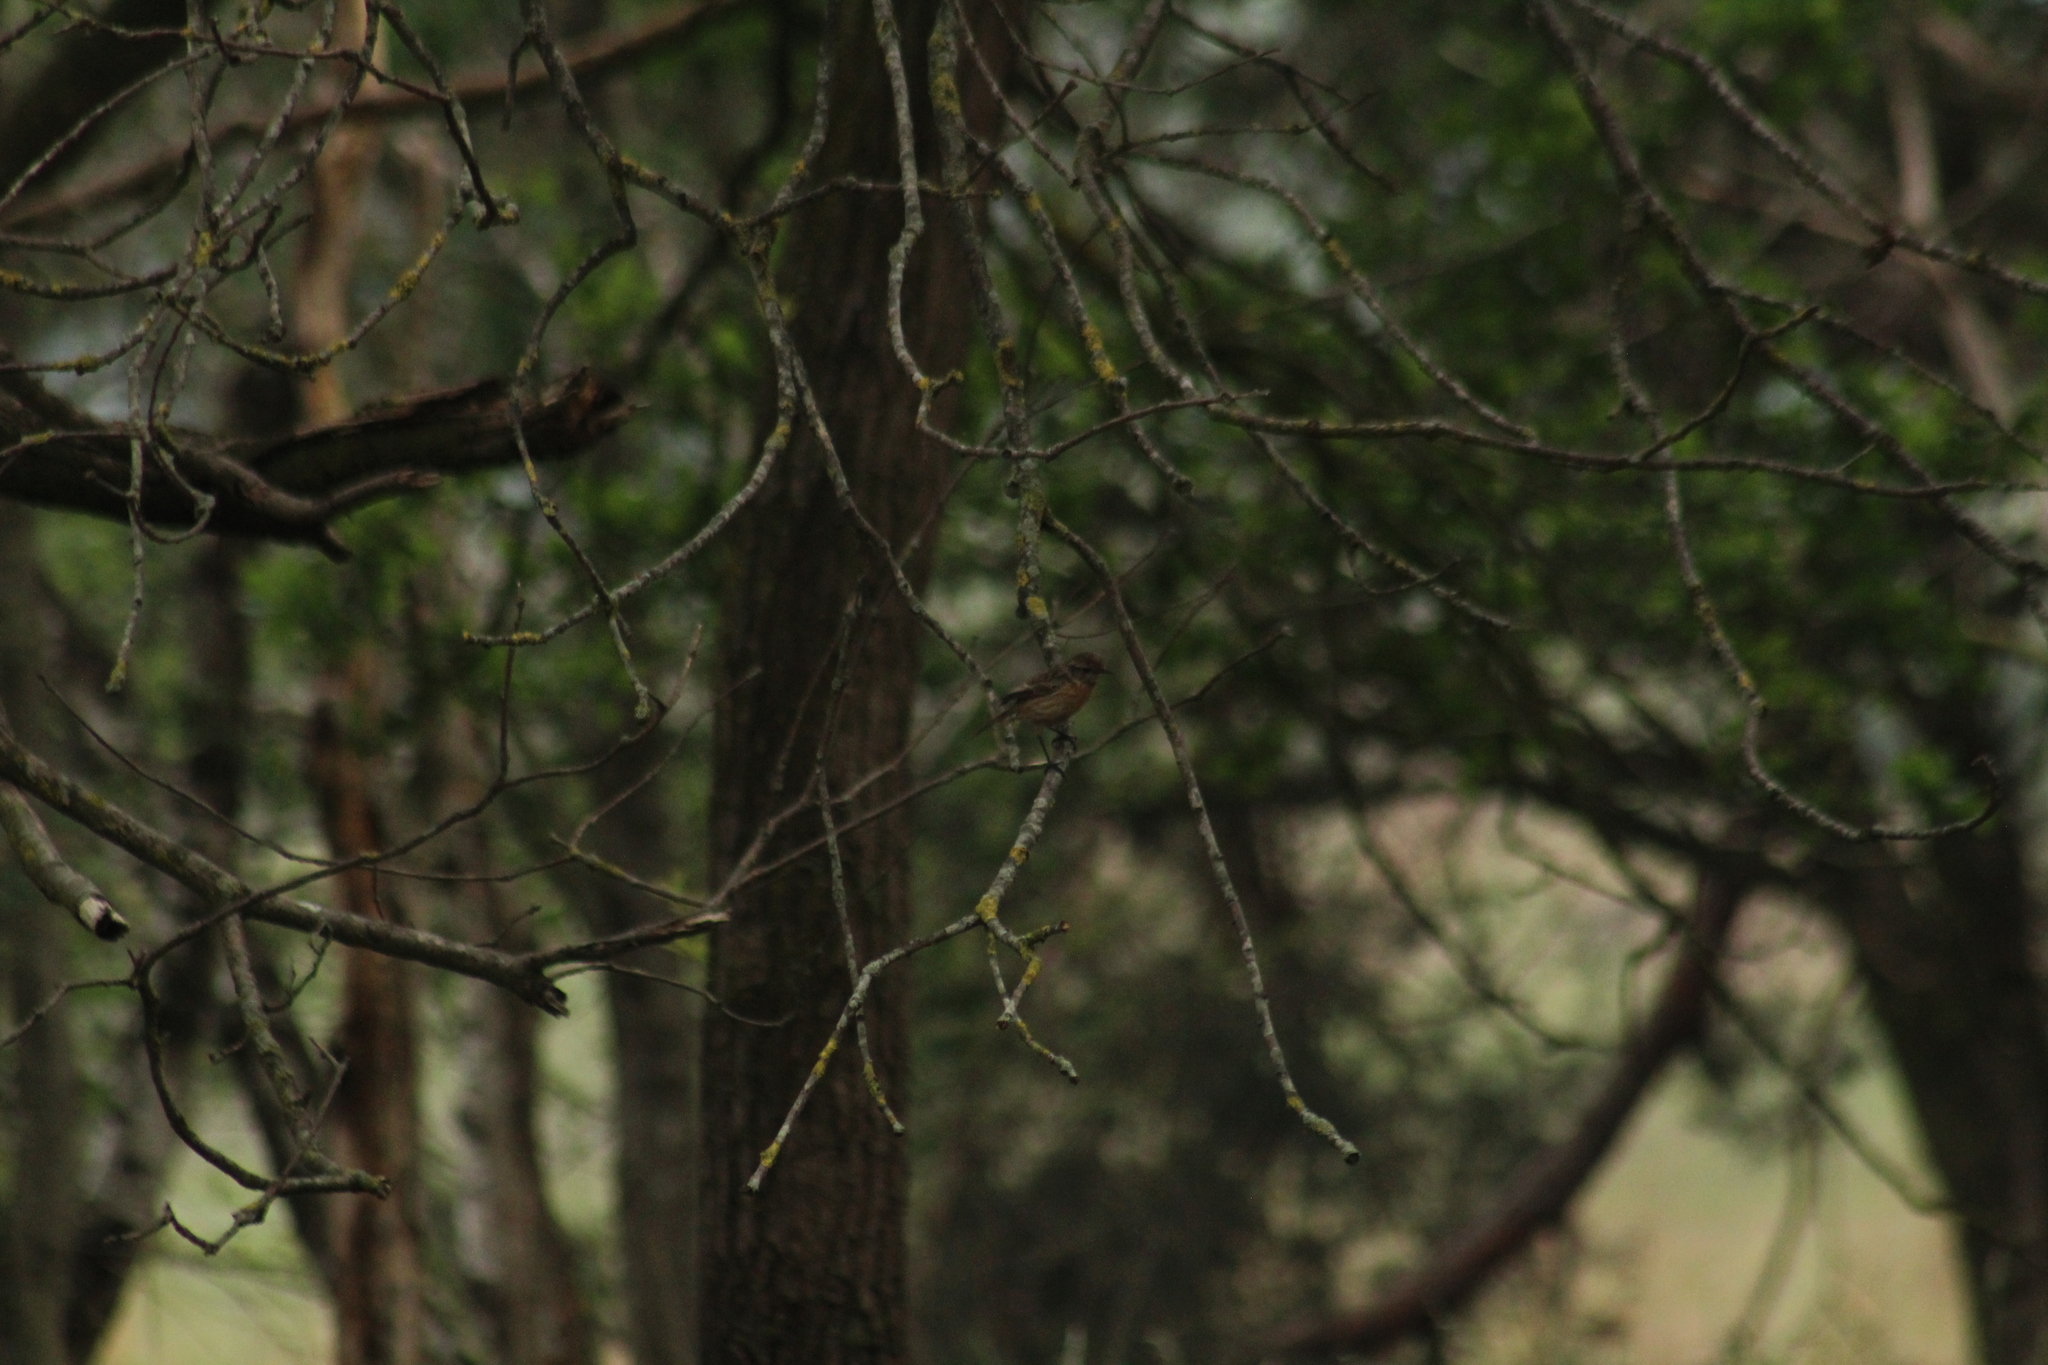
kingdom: Animalia
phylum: Chordata
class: Aves
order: Passeriformes
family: Muscicapidae
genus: Saxicola
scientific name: Saxicola rubicola
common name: European stonechat
